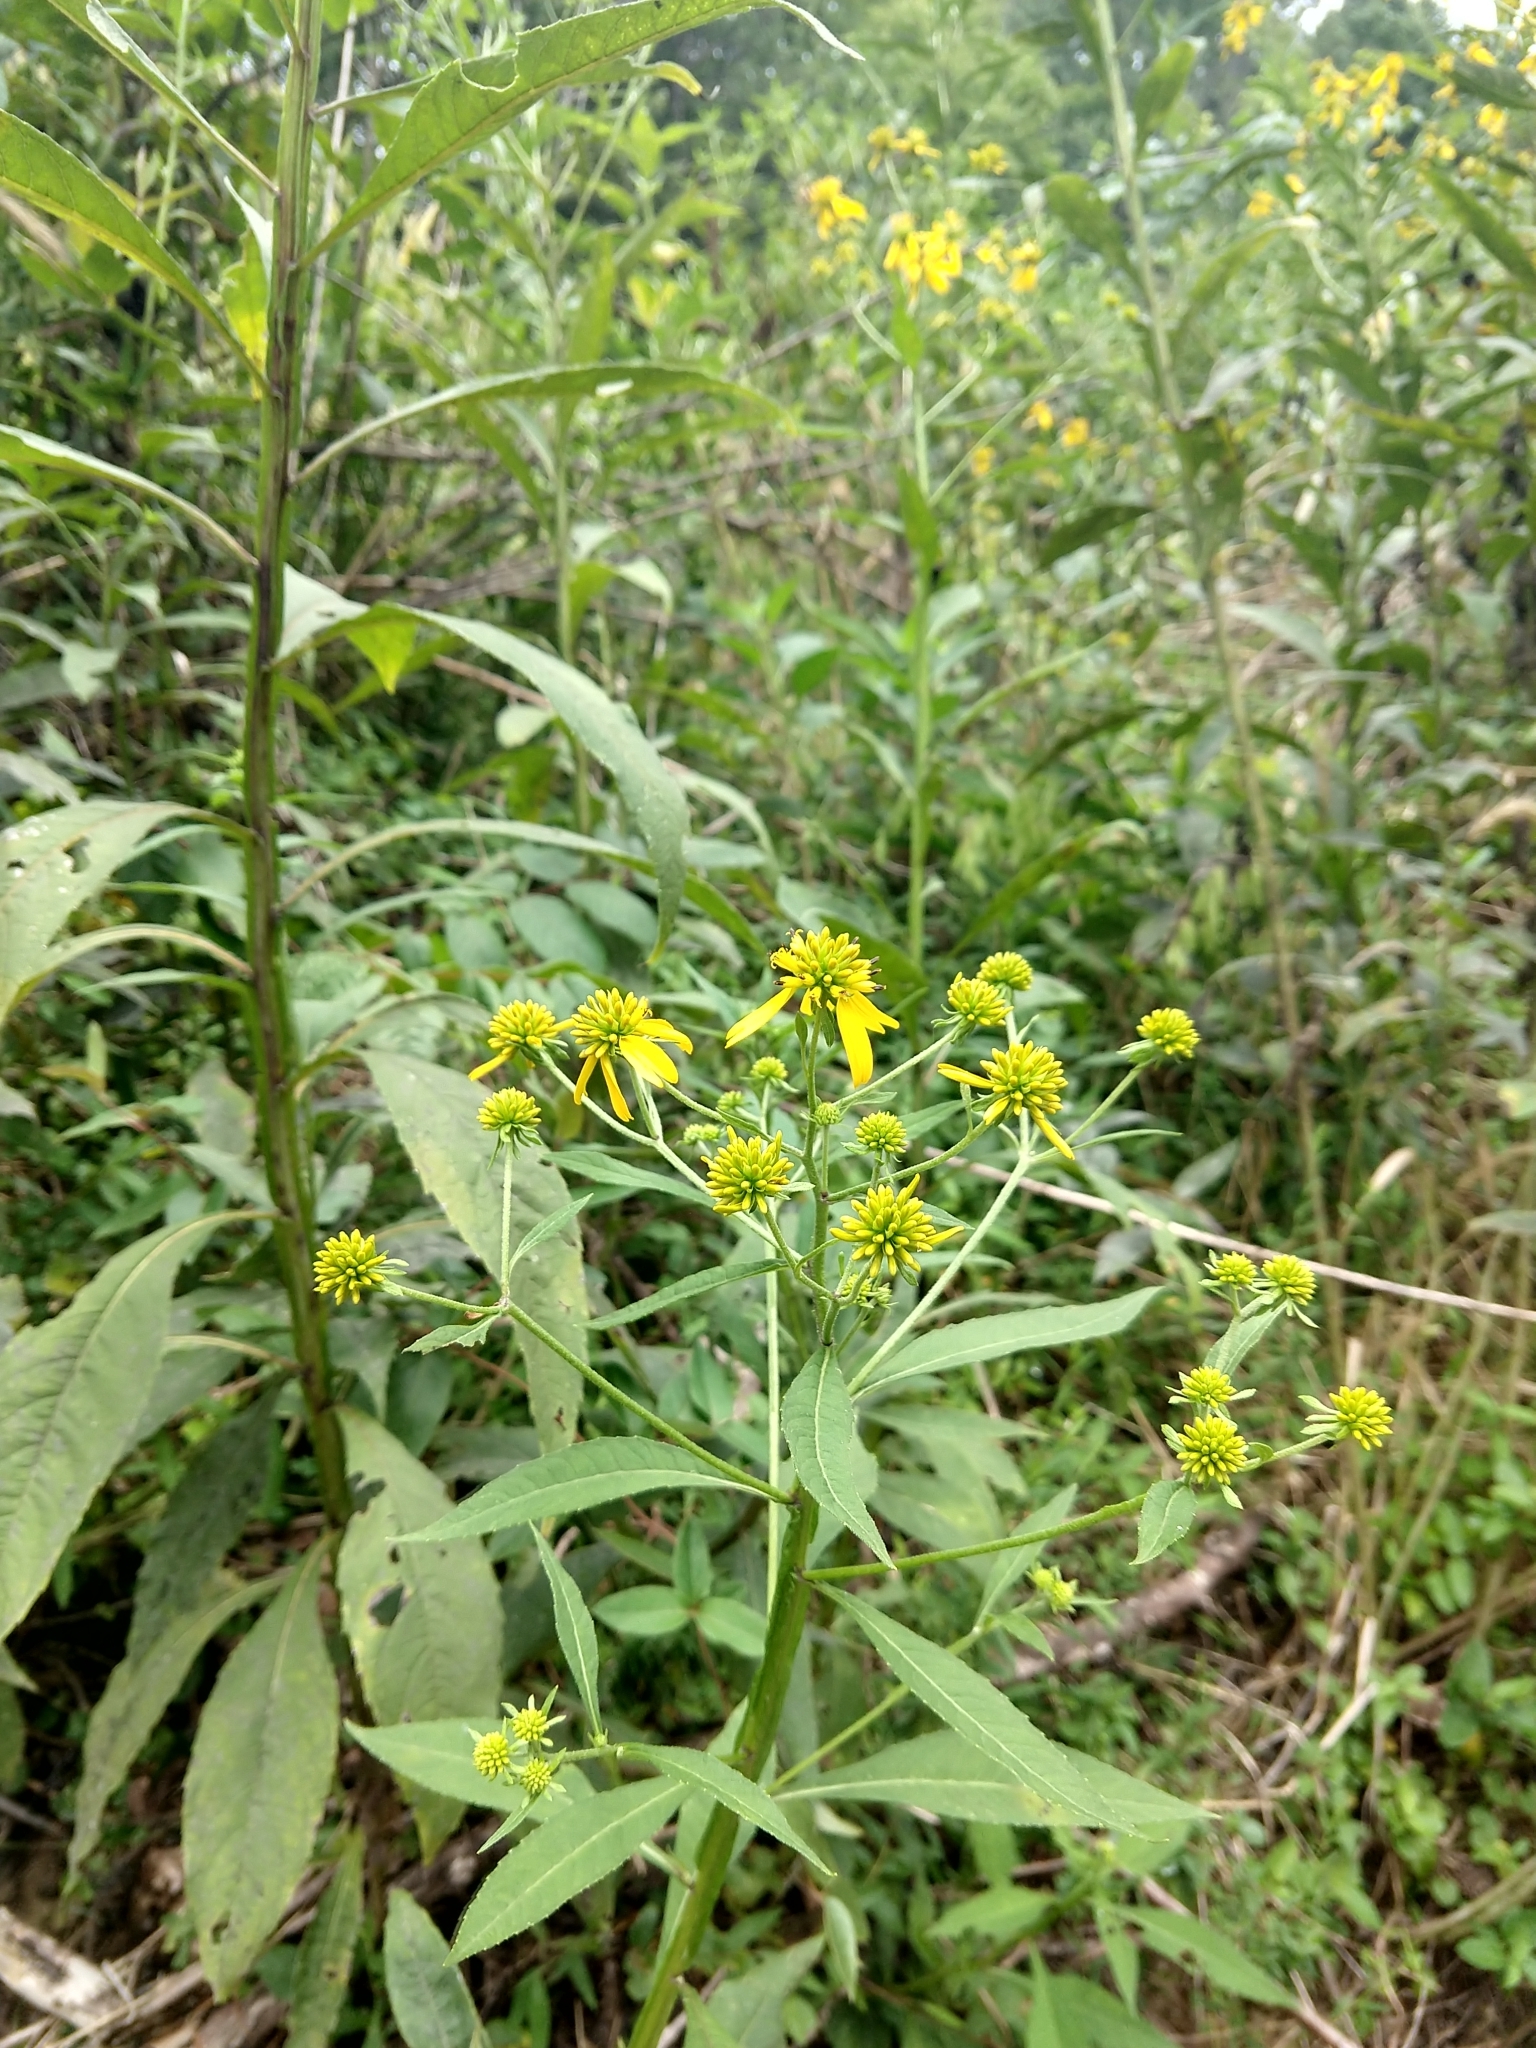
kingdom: Plantae
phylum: Tracheophyta
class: Magnoliopsida
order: Asterales
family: Asteraceae
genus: Verbesina
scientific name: Verbesina alternifolia
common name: Wingstem
